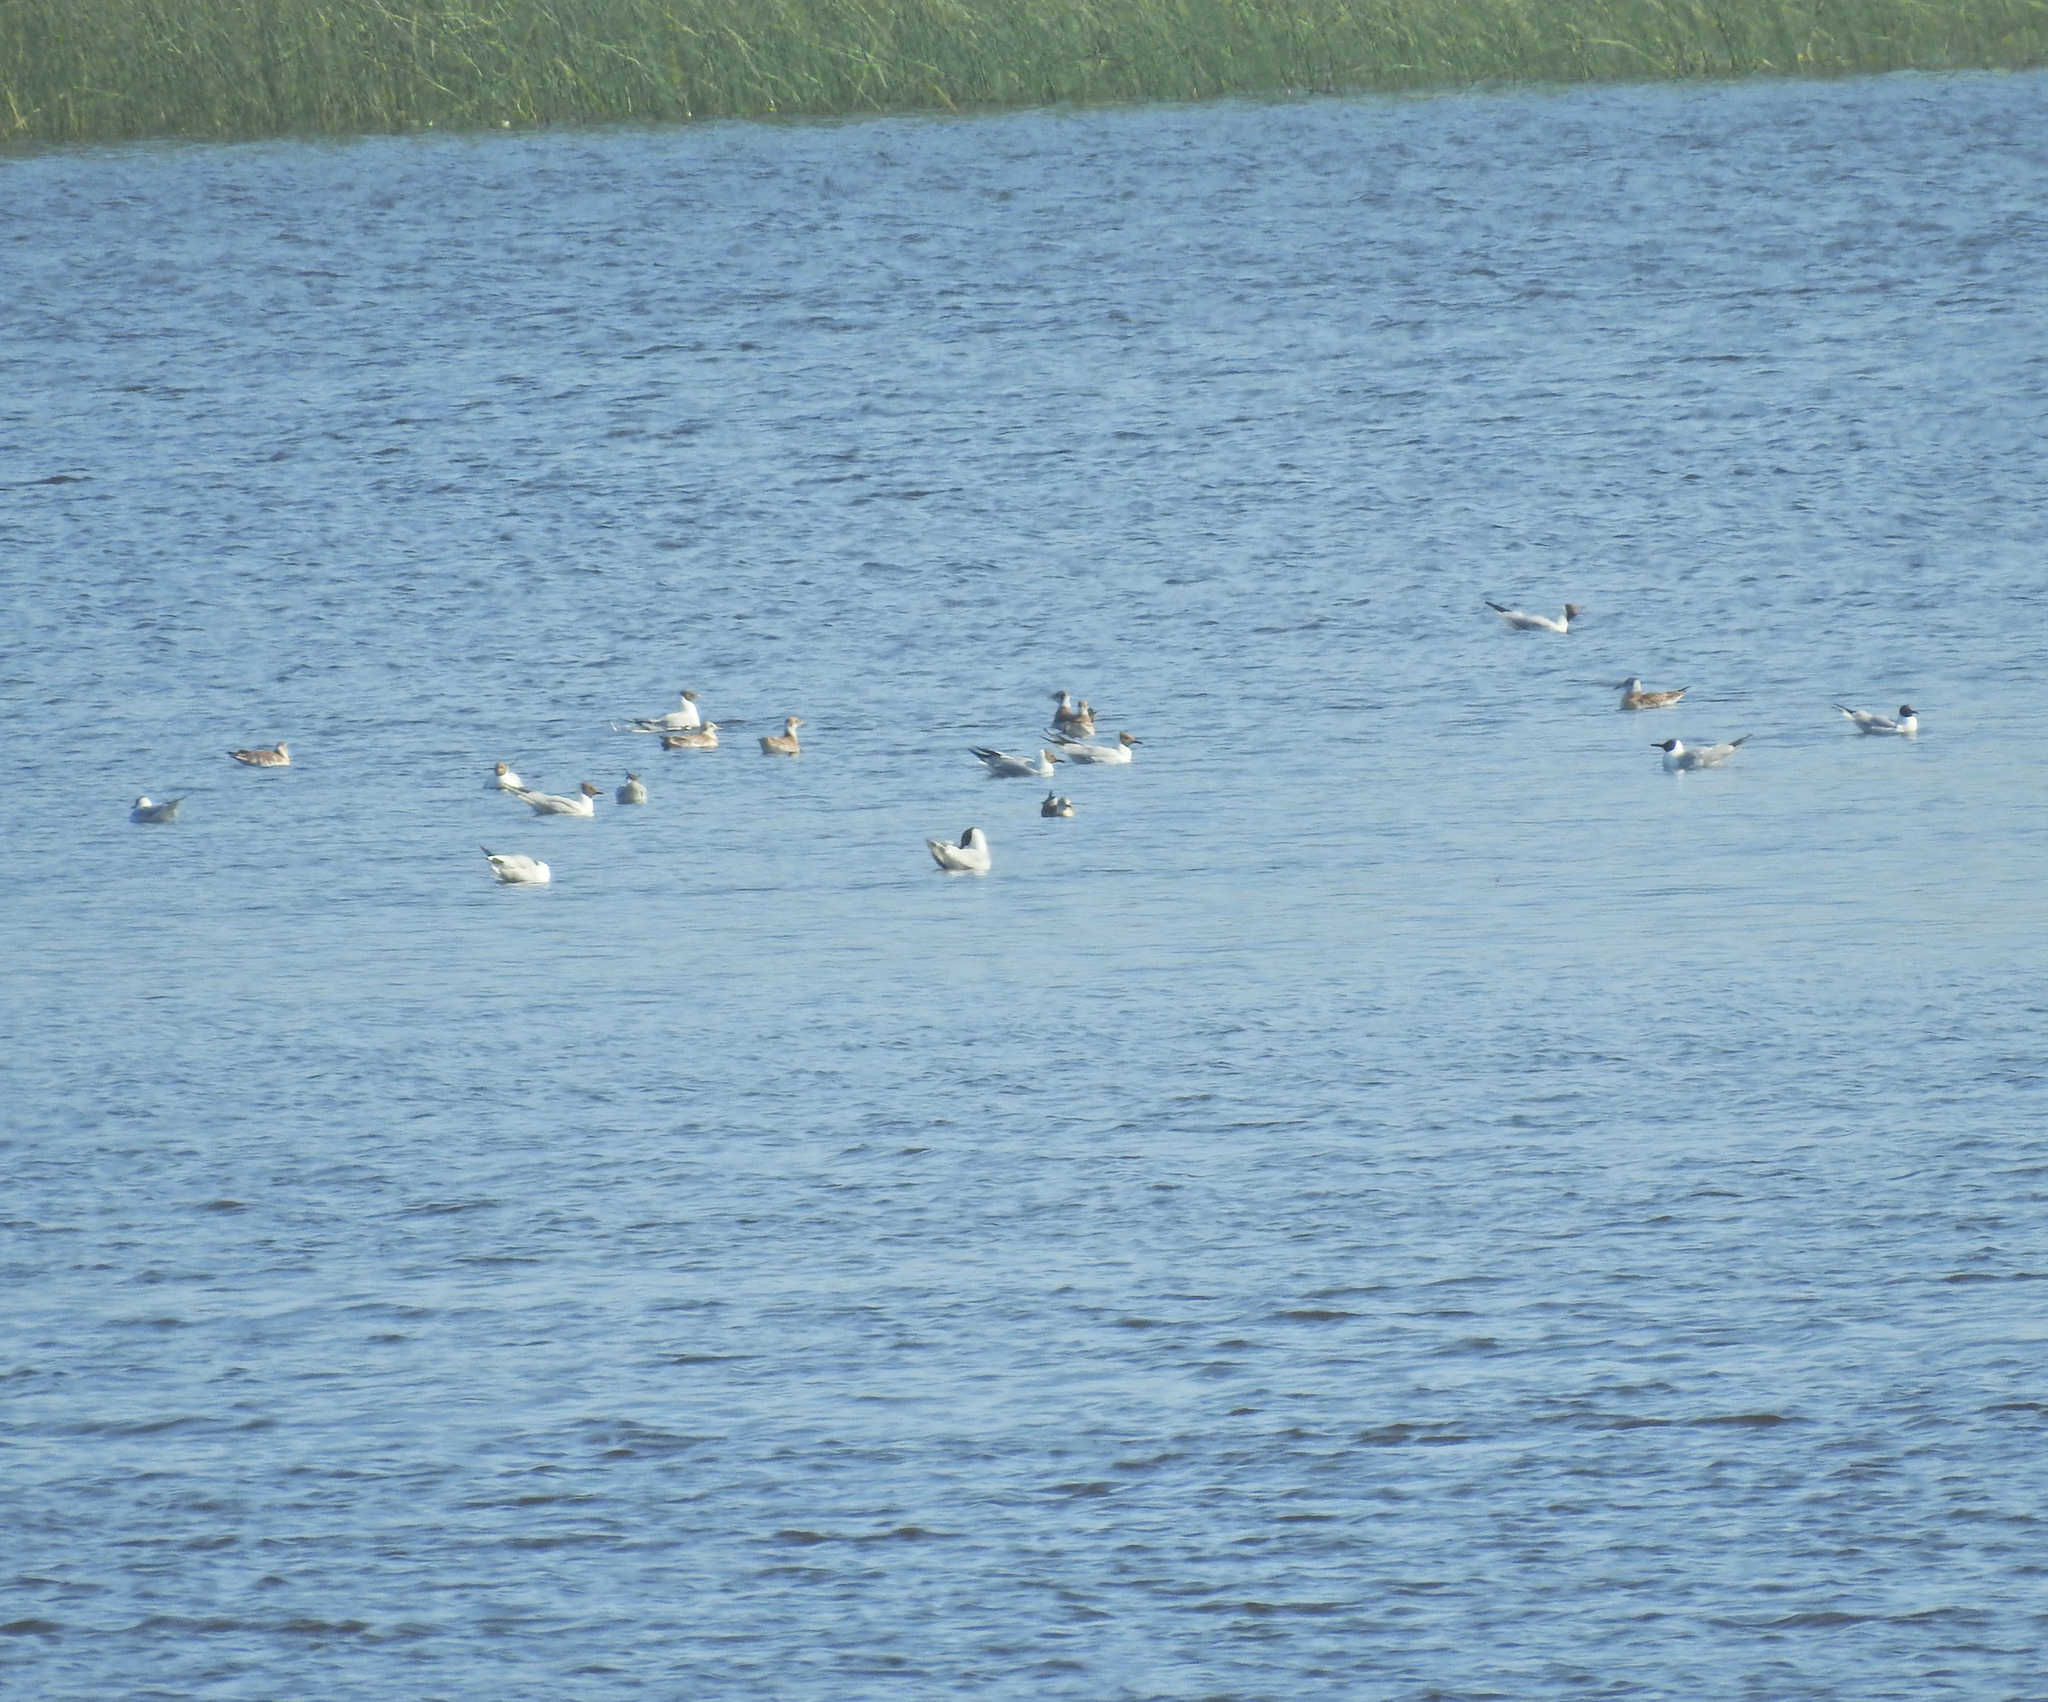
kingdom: Animalia
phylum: Chordata
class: Aves
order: Charadriiformes
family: Laridae
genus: Chroicocephalus
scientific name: Chroicocephalus ridibundus
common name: Black-headed gull
